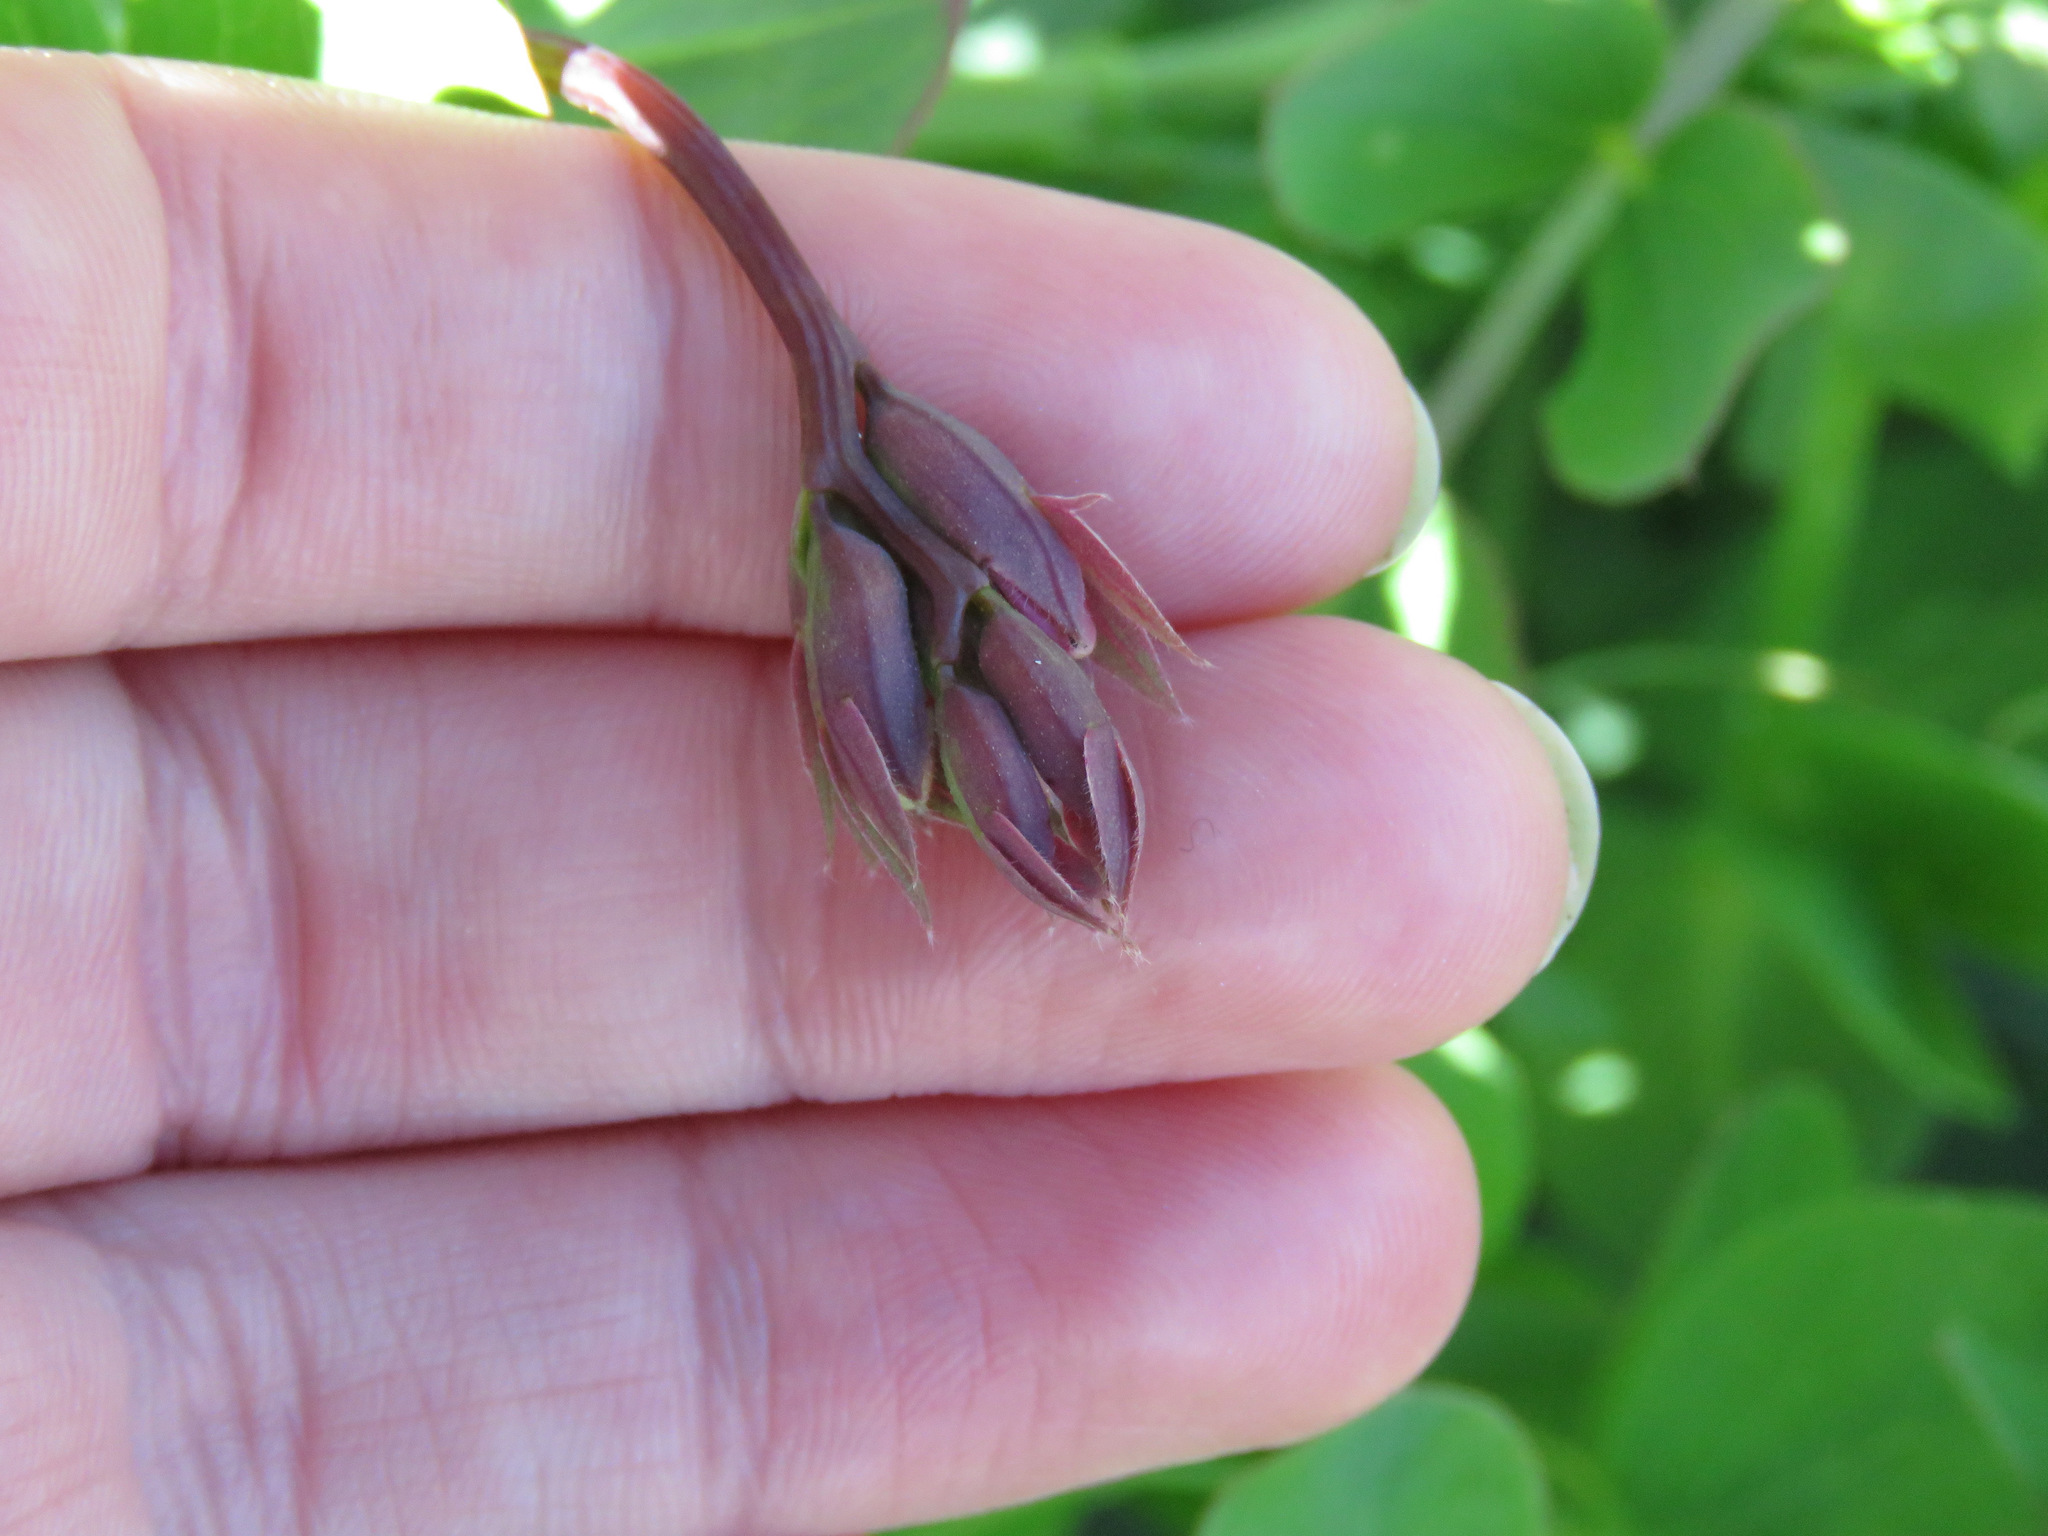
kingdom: Plantae
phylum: Tracheophyta
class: Magnoliopsida
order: Fabales
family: Fabaceae
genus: Lathyrus
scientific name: Lathyrus japonicus
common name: Sea pea
